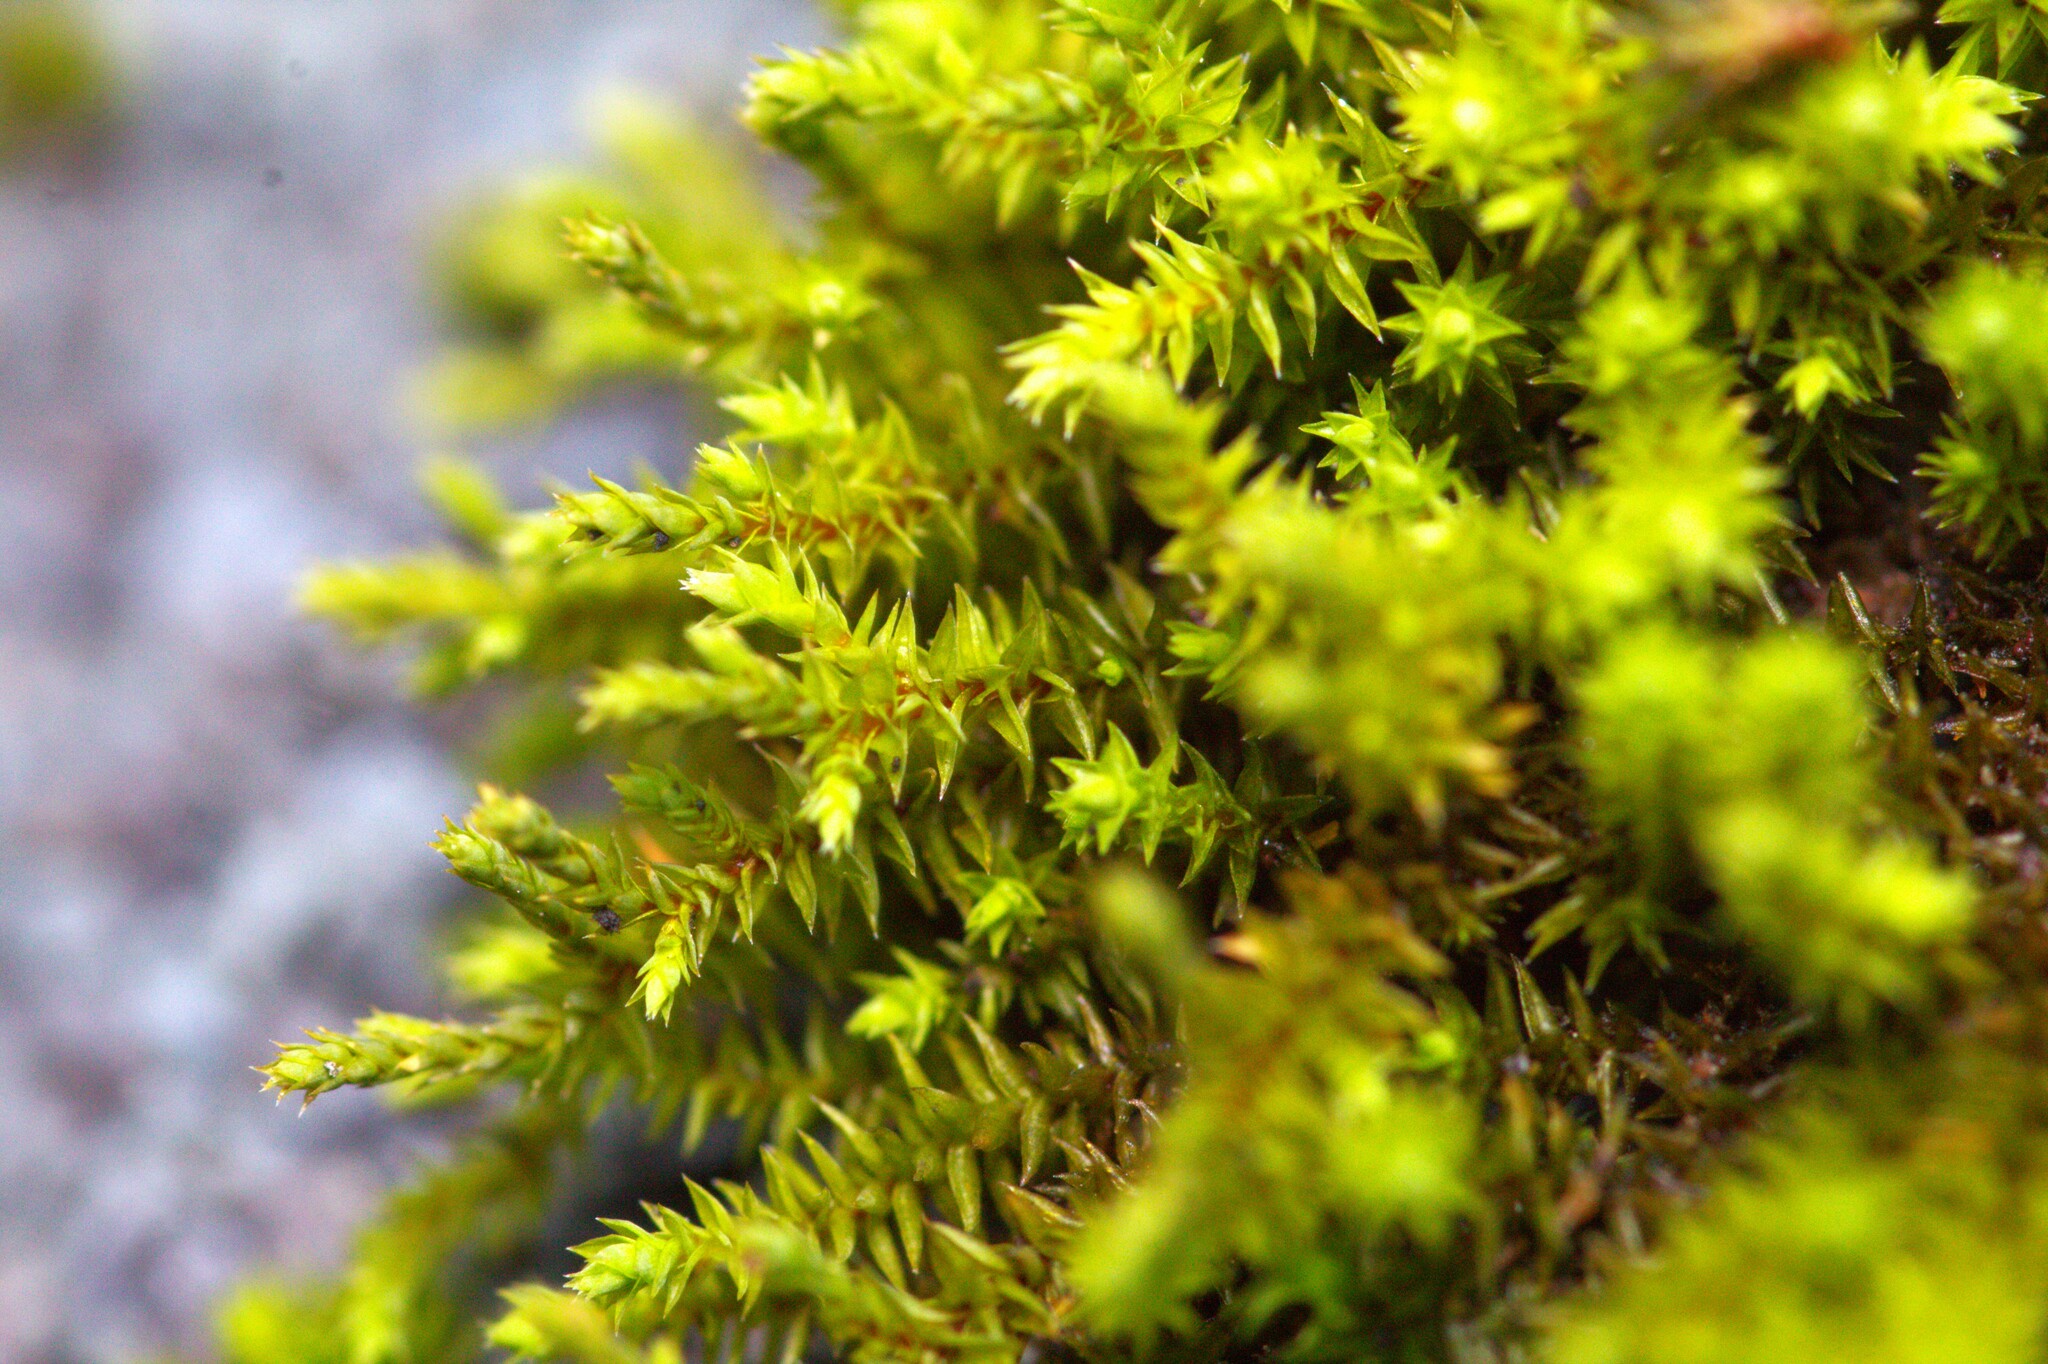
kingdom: Plantae
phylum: Bryophyta
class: Bryopsida
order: Hedwigiales
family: Hedwigiaceae
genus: Hedwigia
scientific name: Hedwigia ciliata
